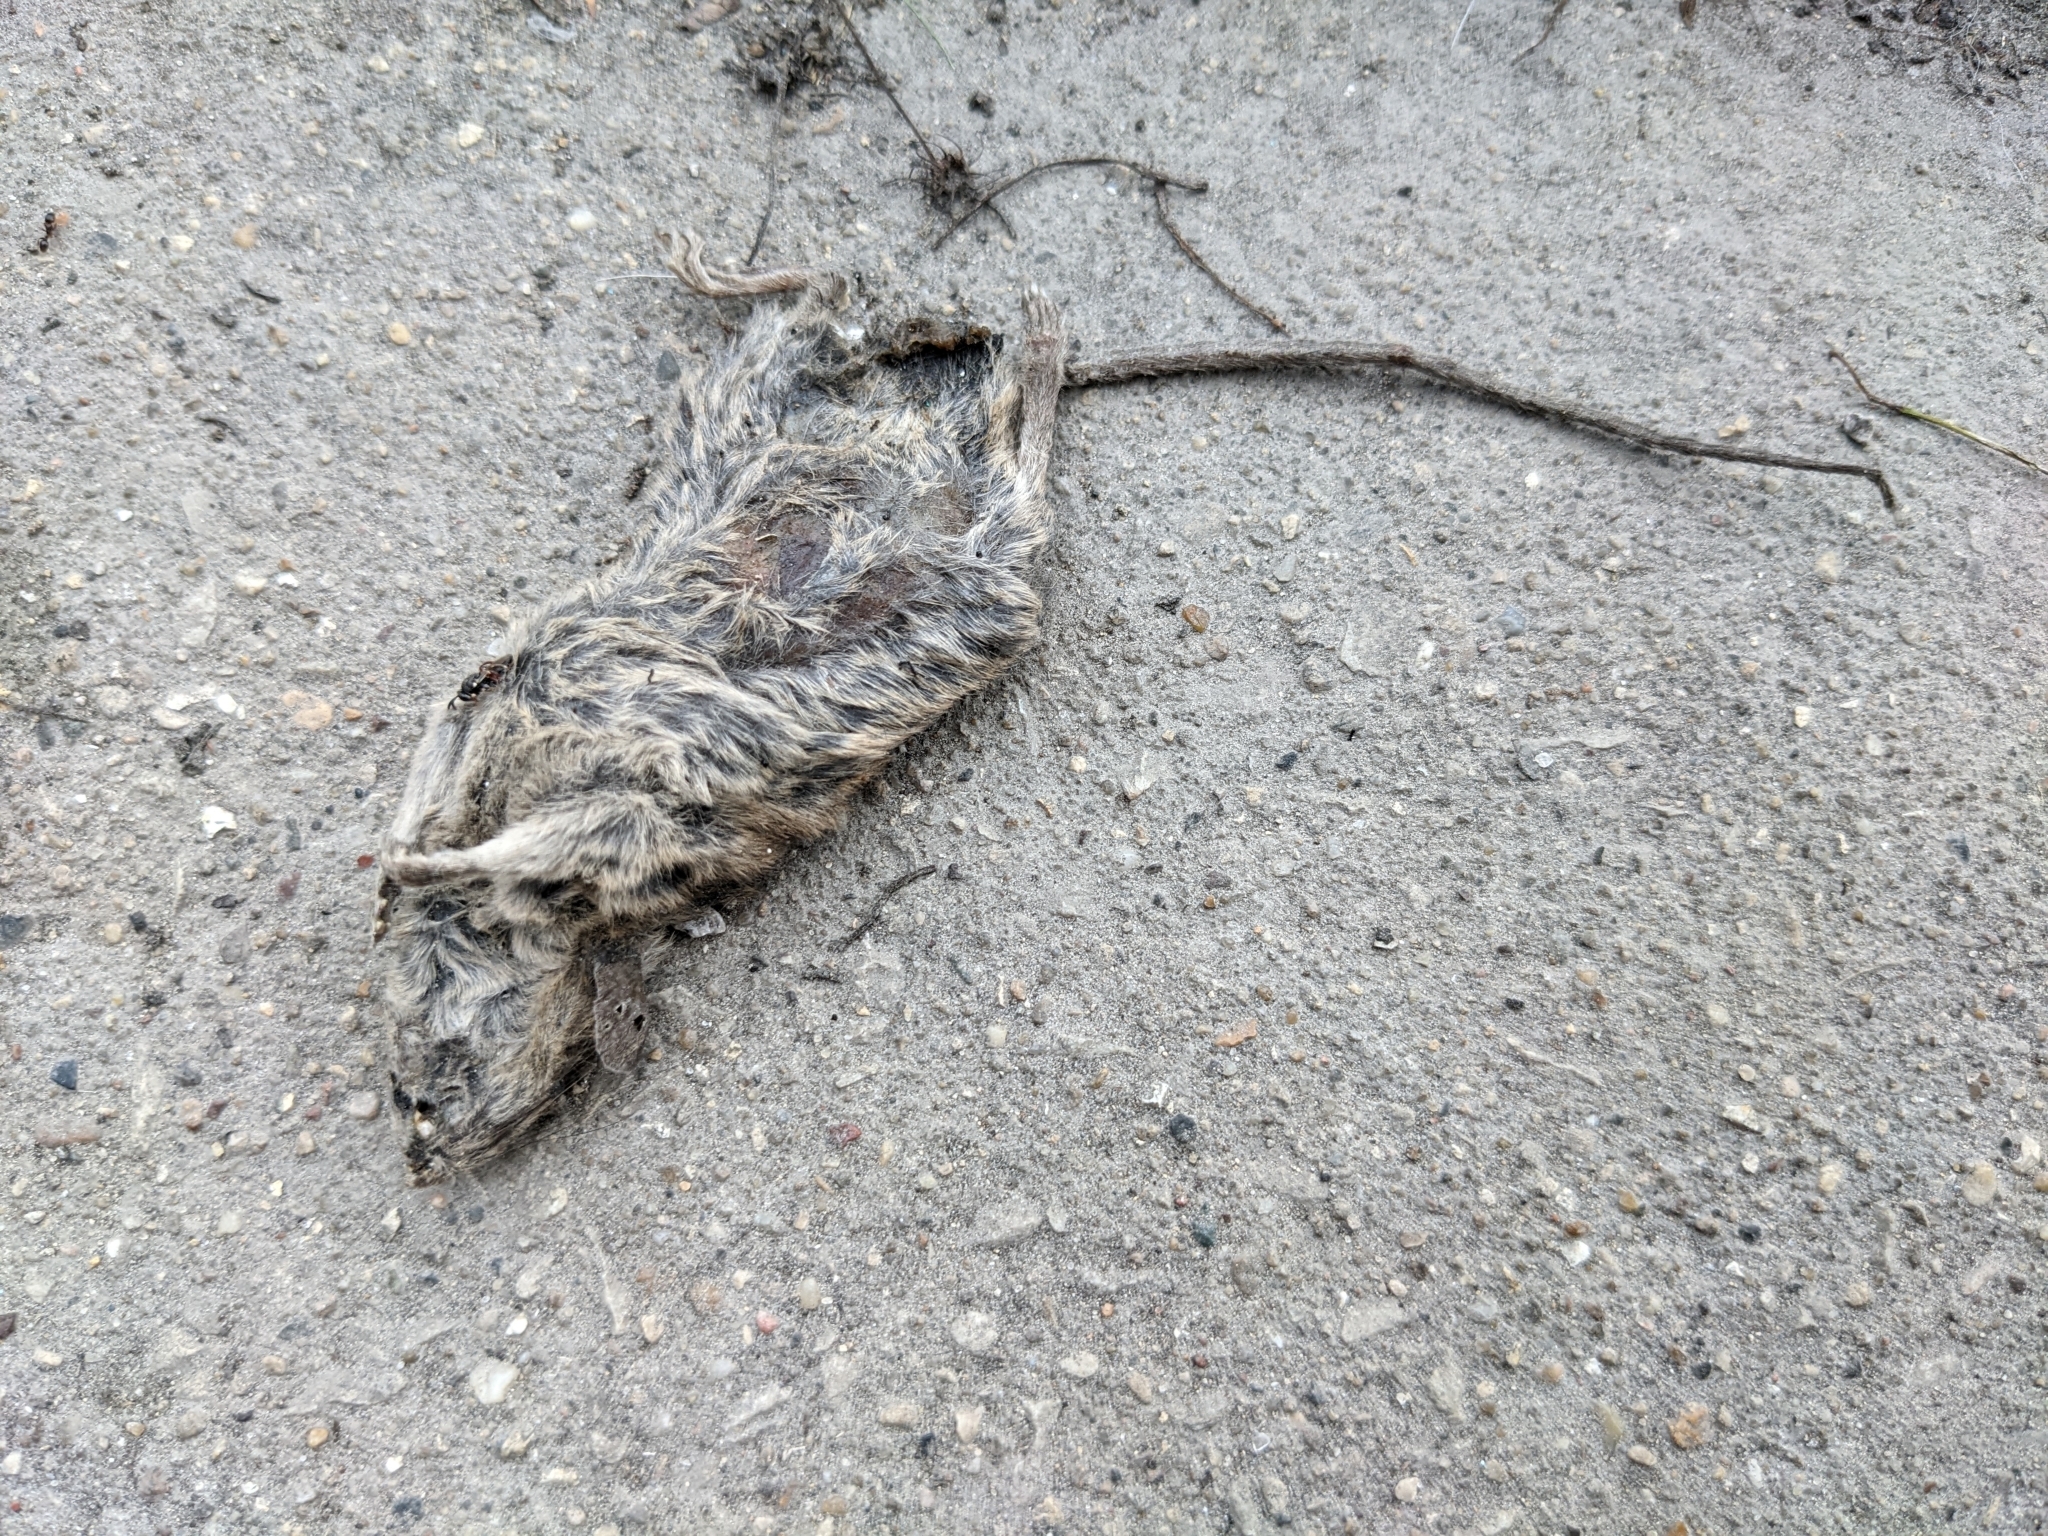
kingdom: Animalia
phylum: Chordata
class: Mammalia
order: Rodentia
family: Muridae
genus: Mus
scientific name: Mus musculus
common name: House mouse
